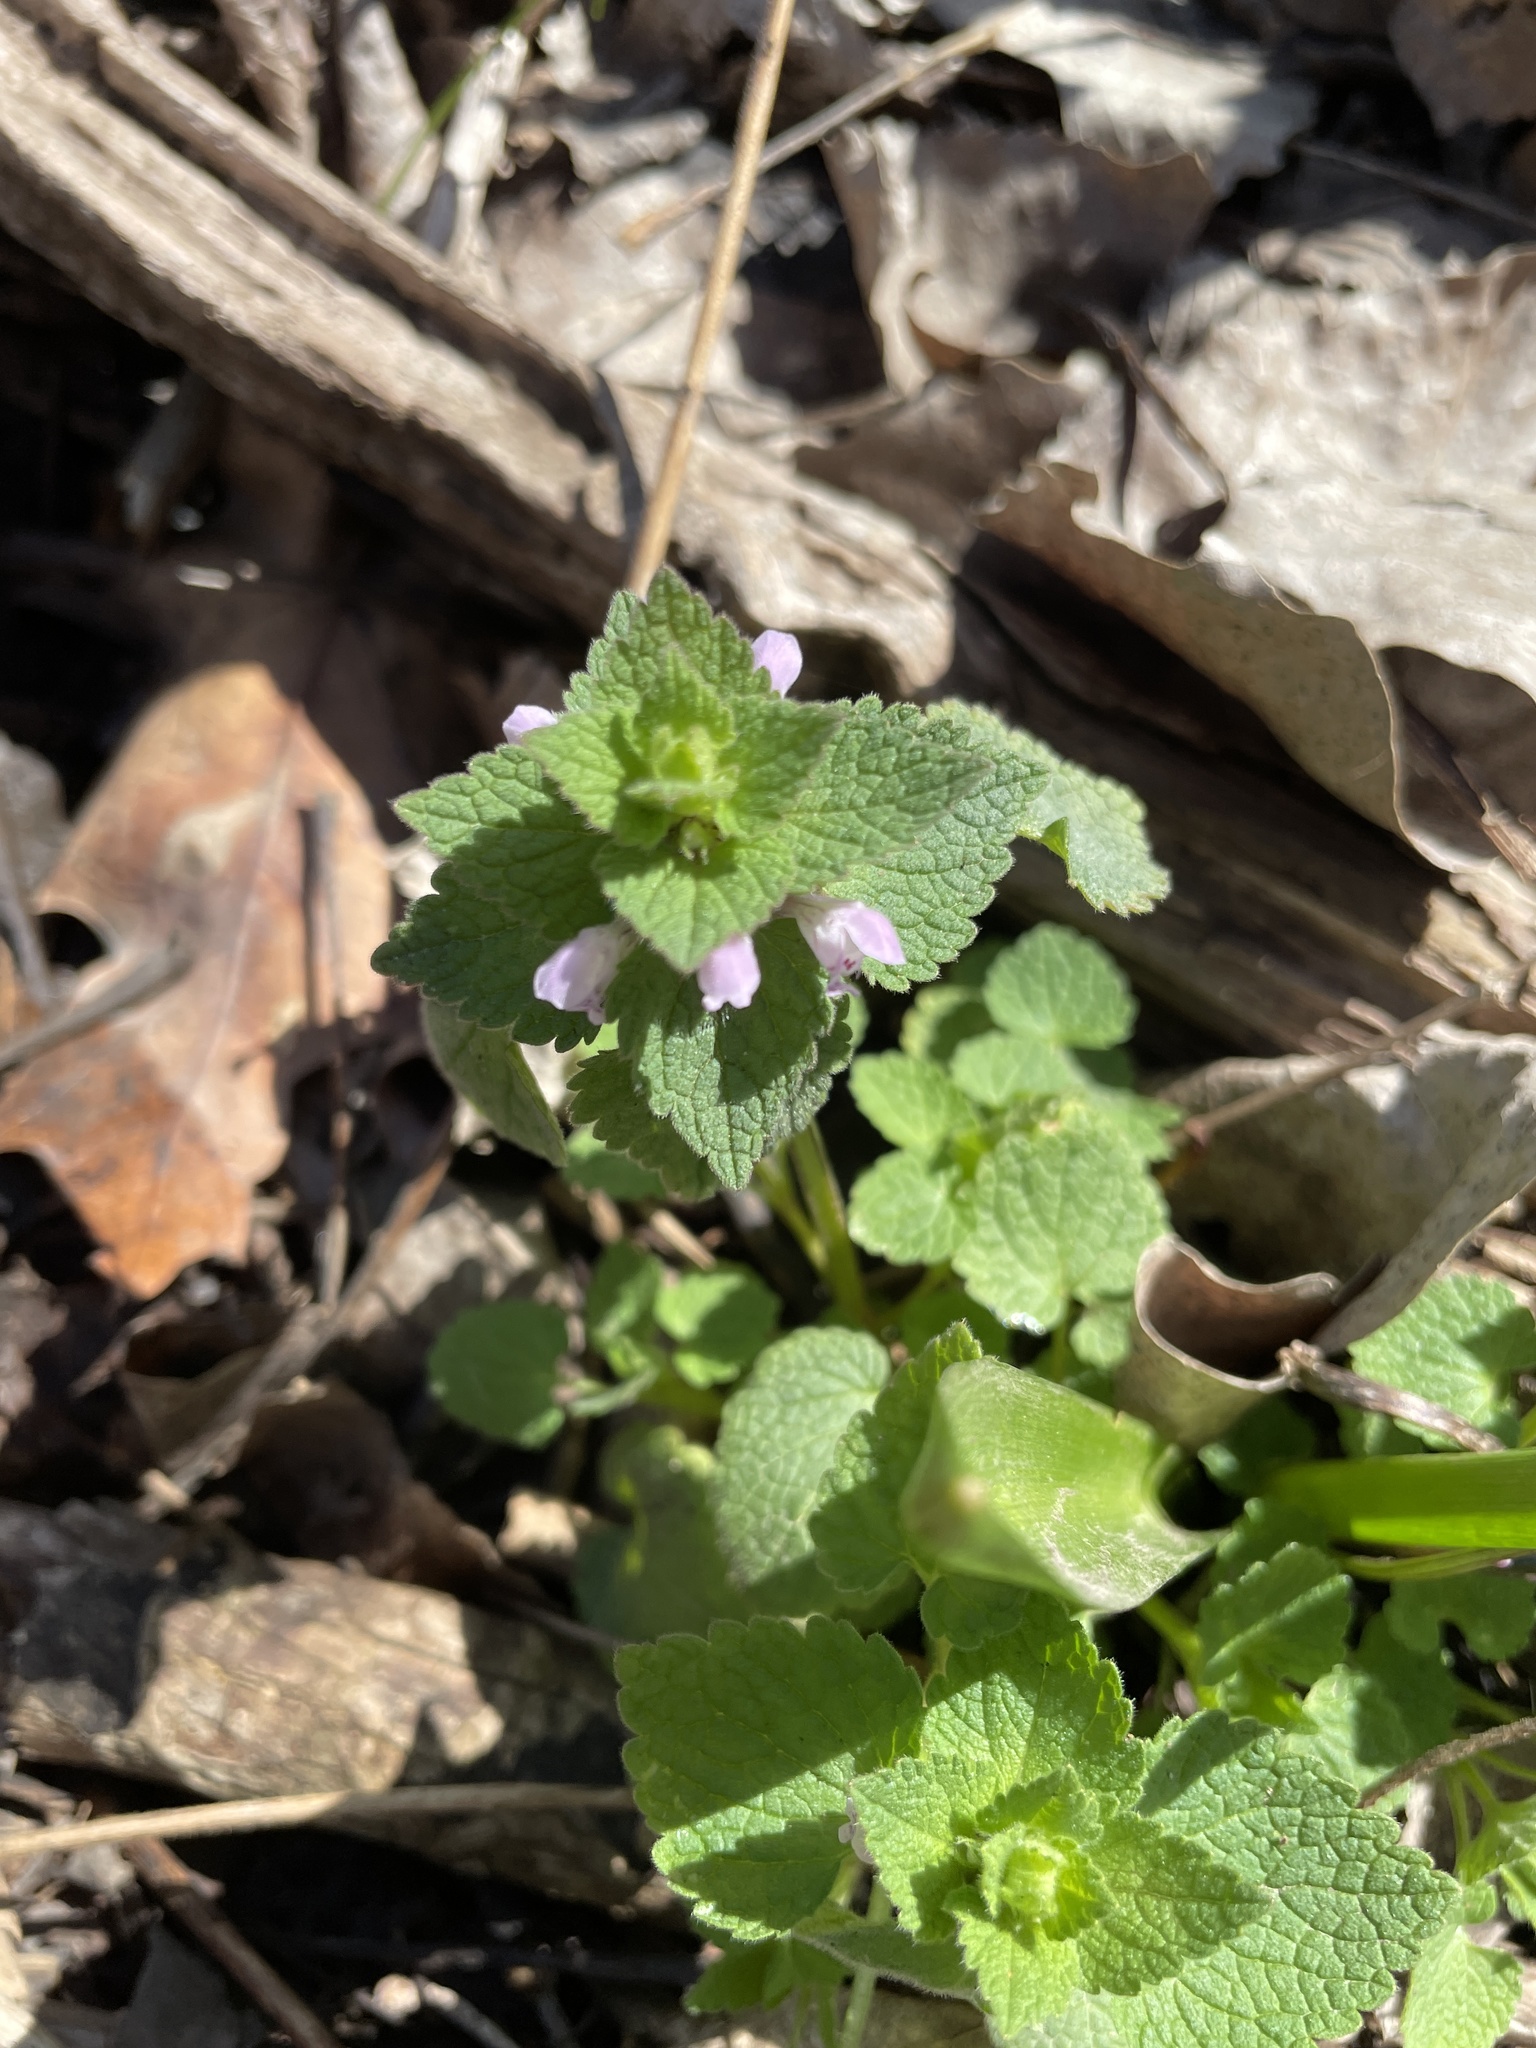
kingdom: Plantae
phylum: Tracheophyta
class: Magnoliopsida
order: Lamiales
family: Lamiaceae
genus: Lamium
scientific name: Lamium purpureum
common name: Red dead-nettle
